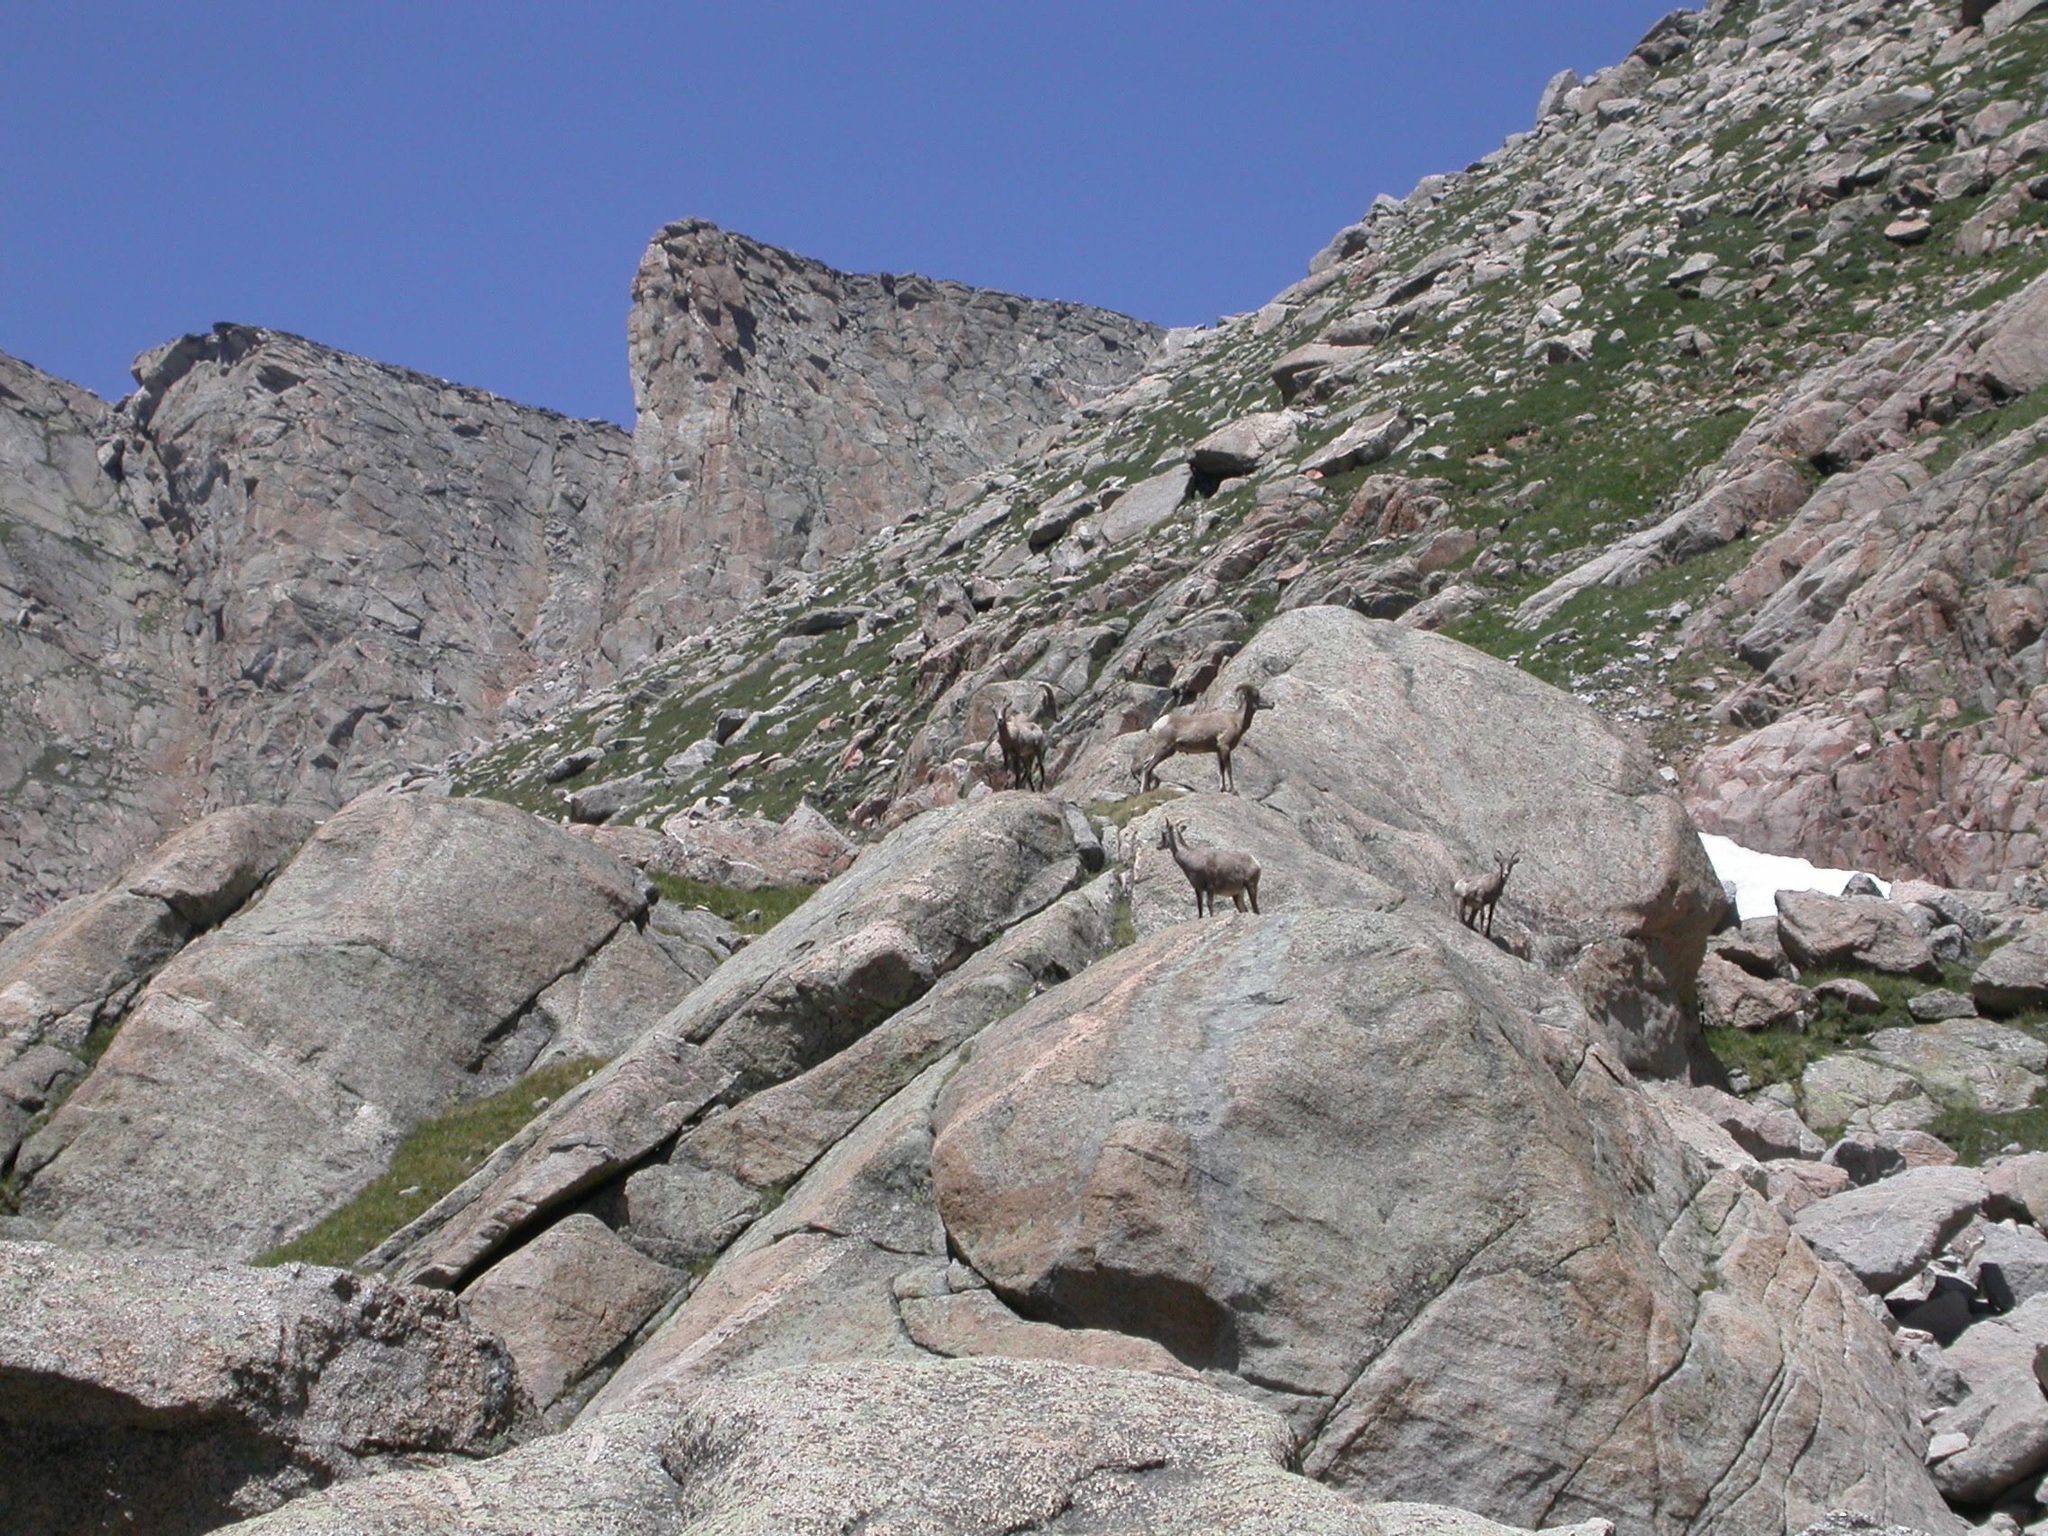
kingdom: Animalia
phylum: Chordata
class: Mammalia
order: Artiodactyla
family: Bovidae
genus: Ovis
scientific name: Ovis canadensis
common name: Bighorn sheep
